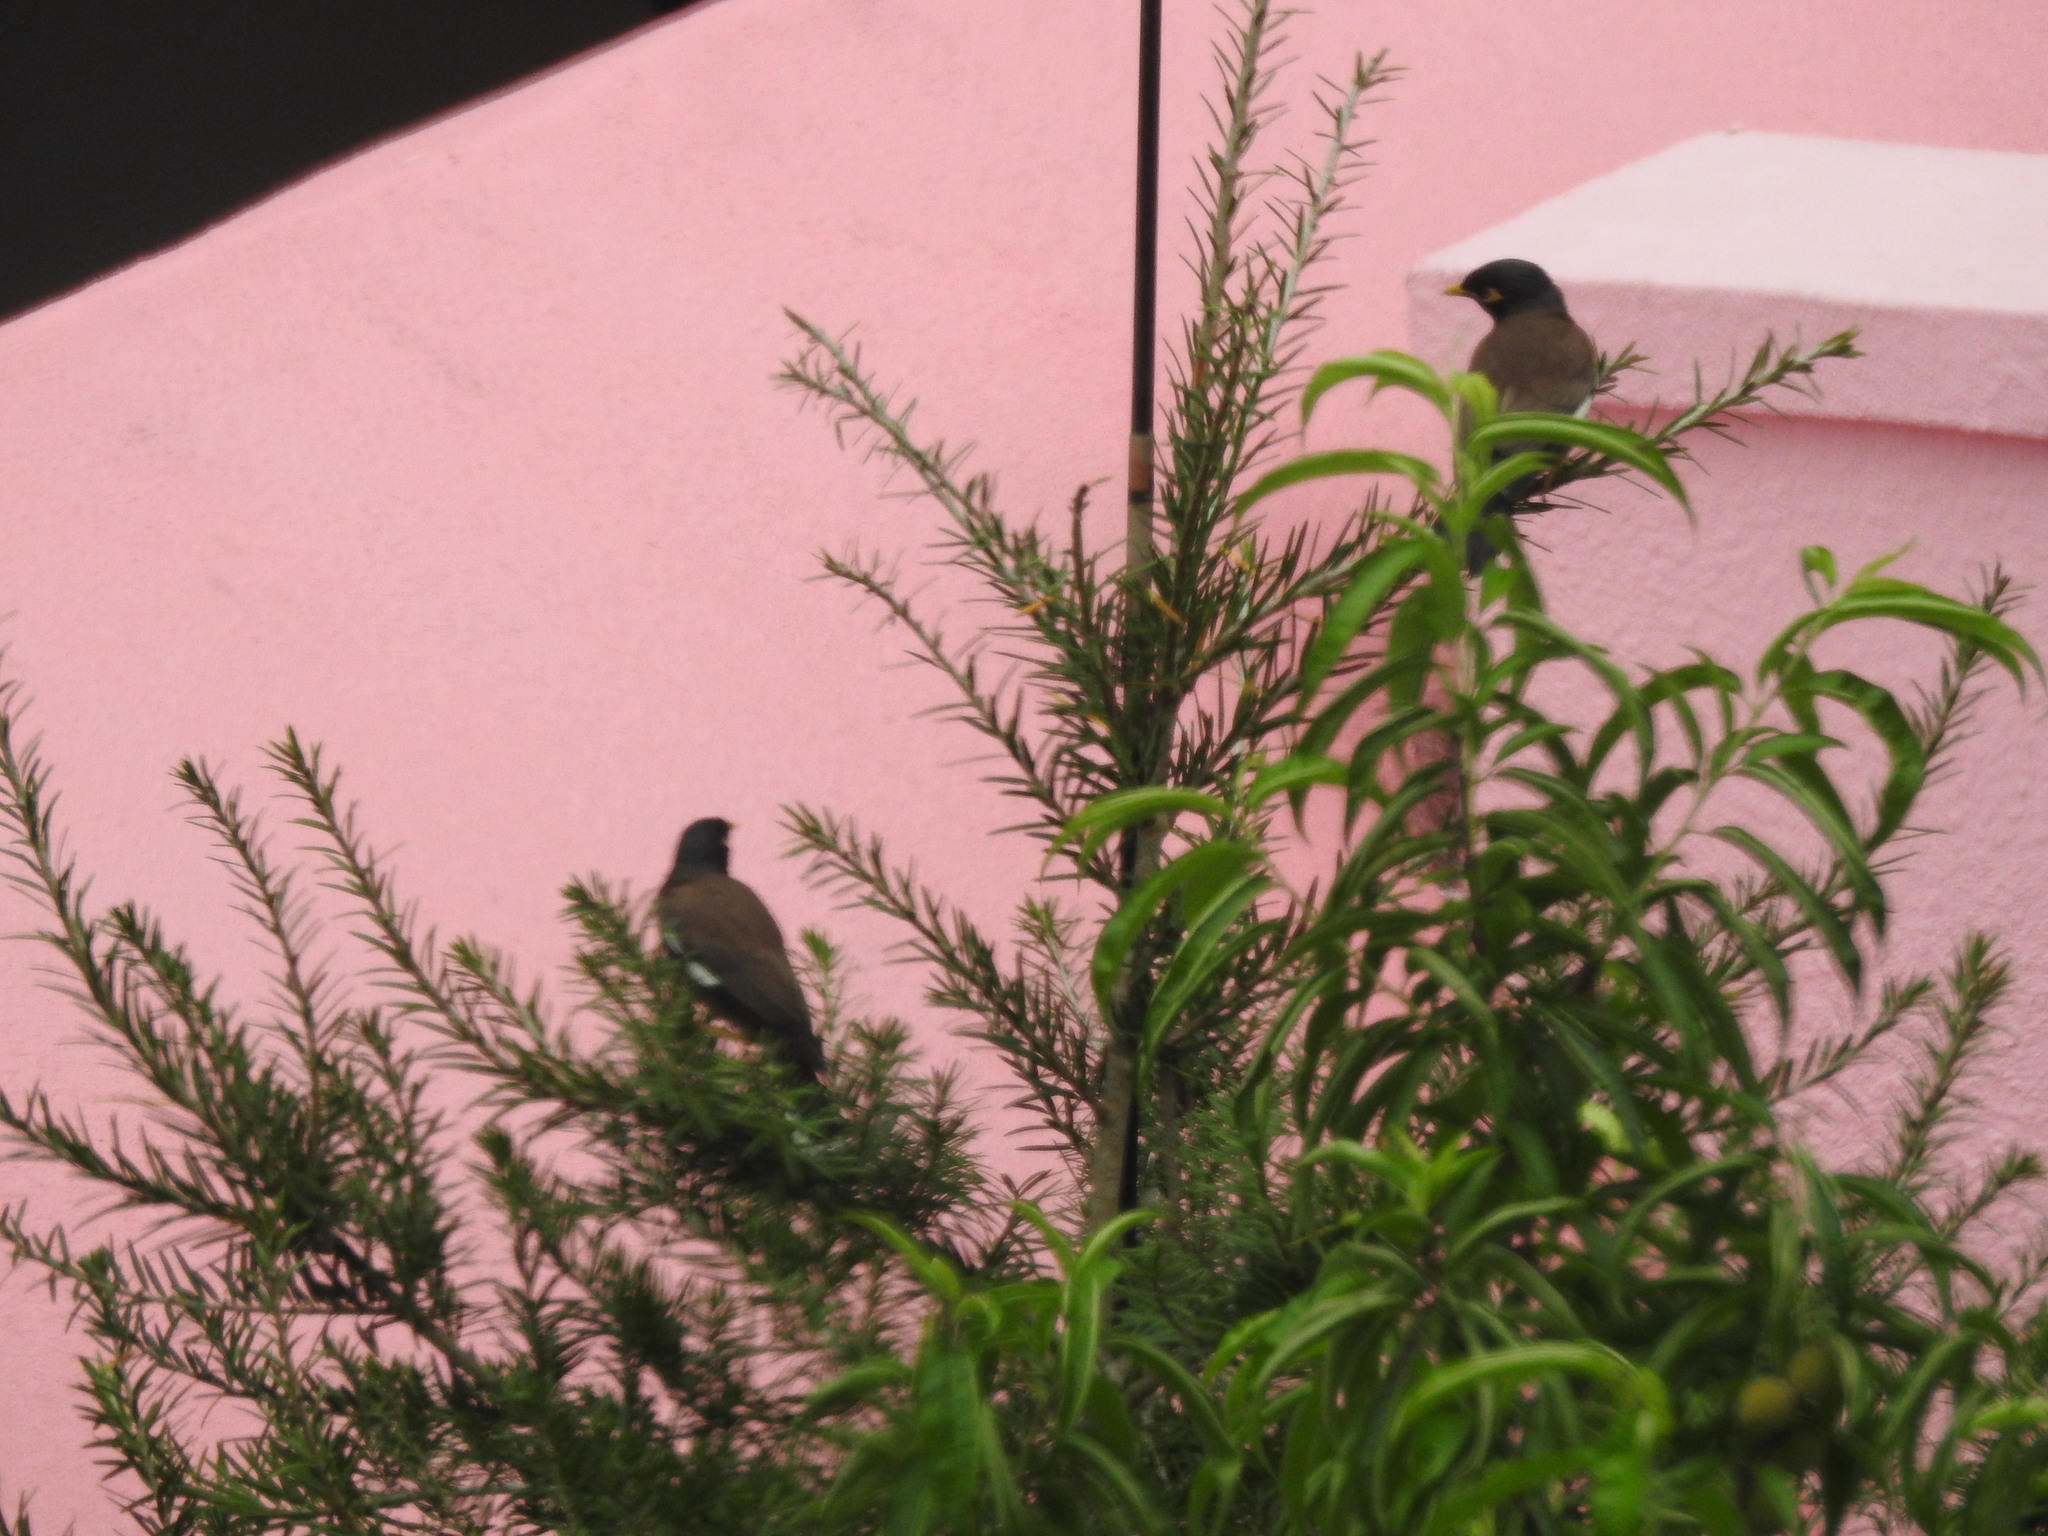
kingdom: Animalia
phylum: Chordata
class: Aves
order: Passeriformes
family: Sturnidae
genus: Acridotheres
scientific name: Acridotheres tristis
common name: Common myna
